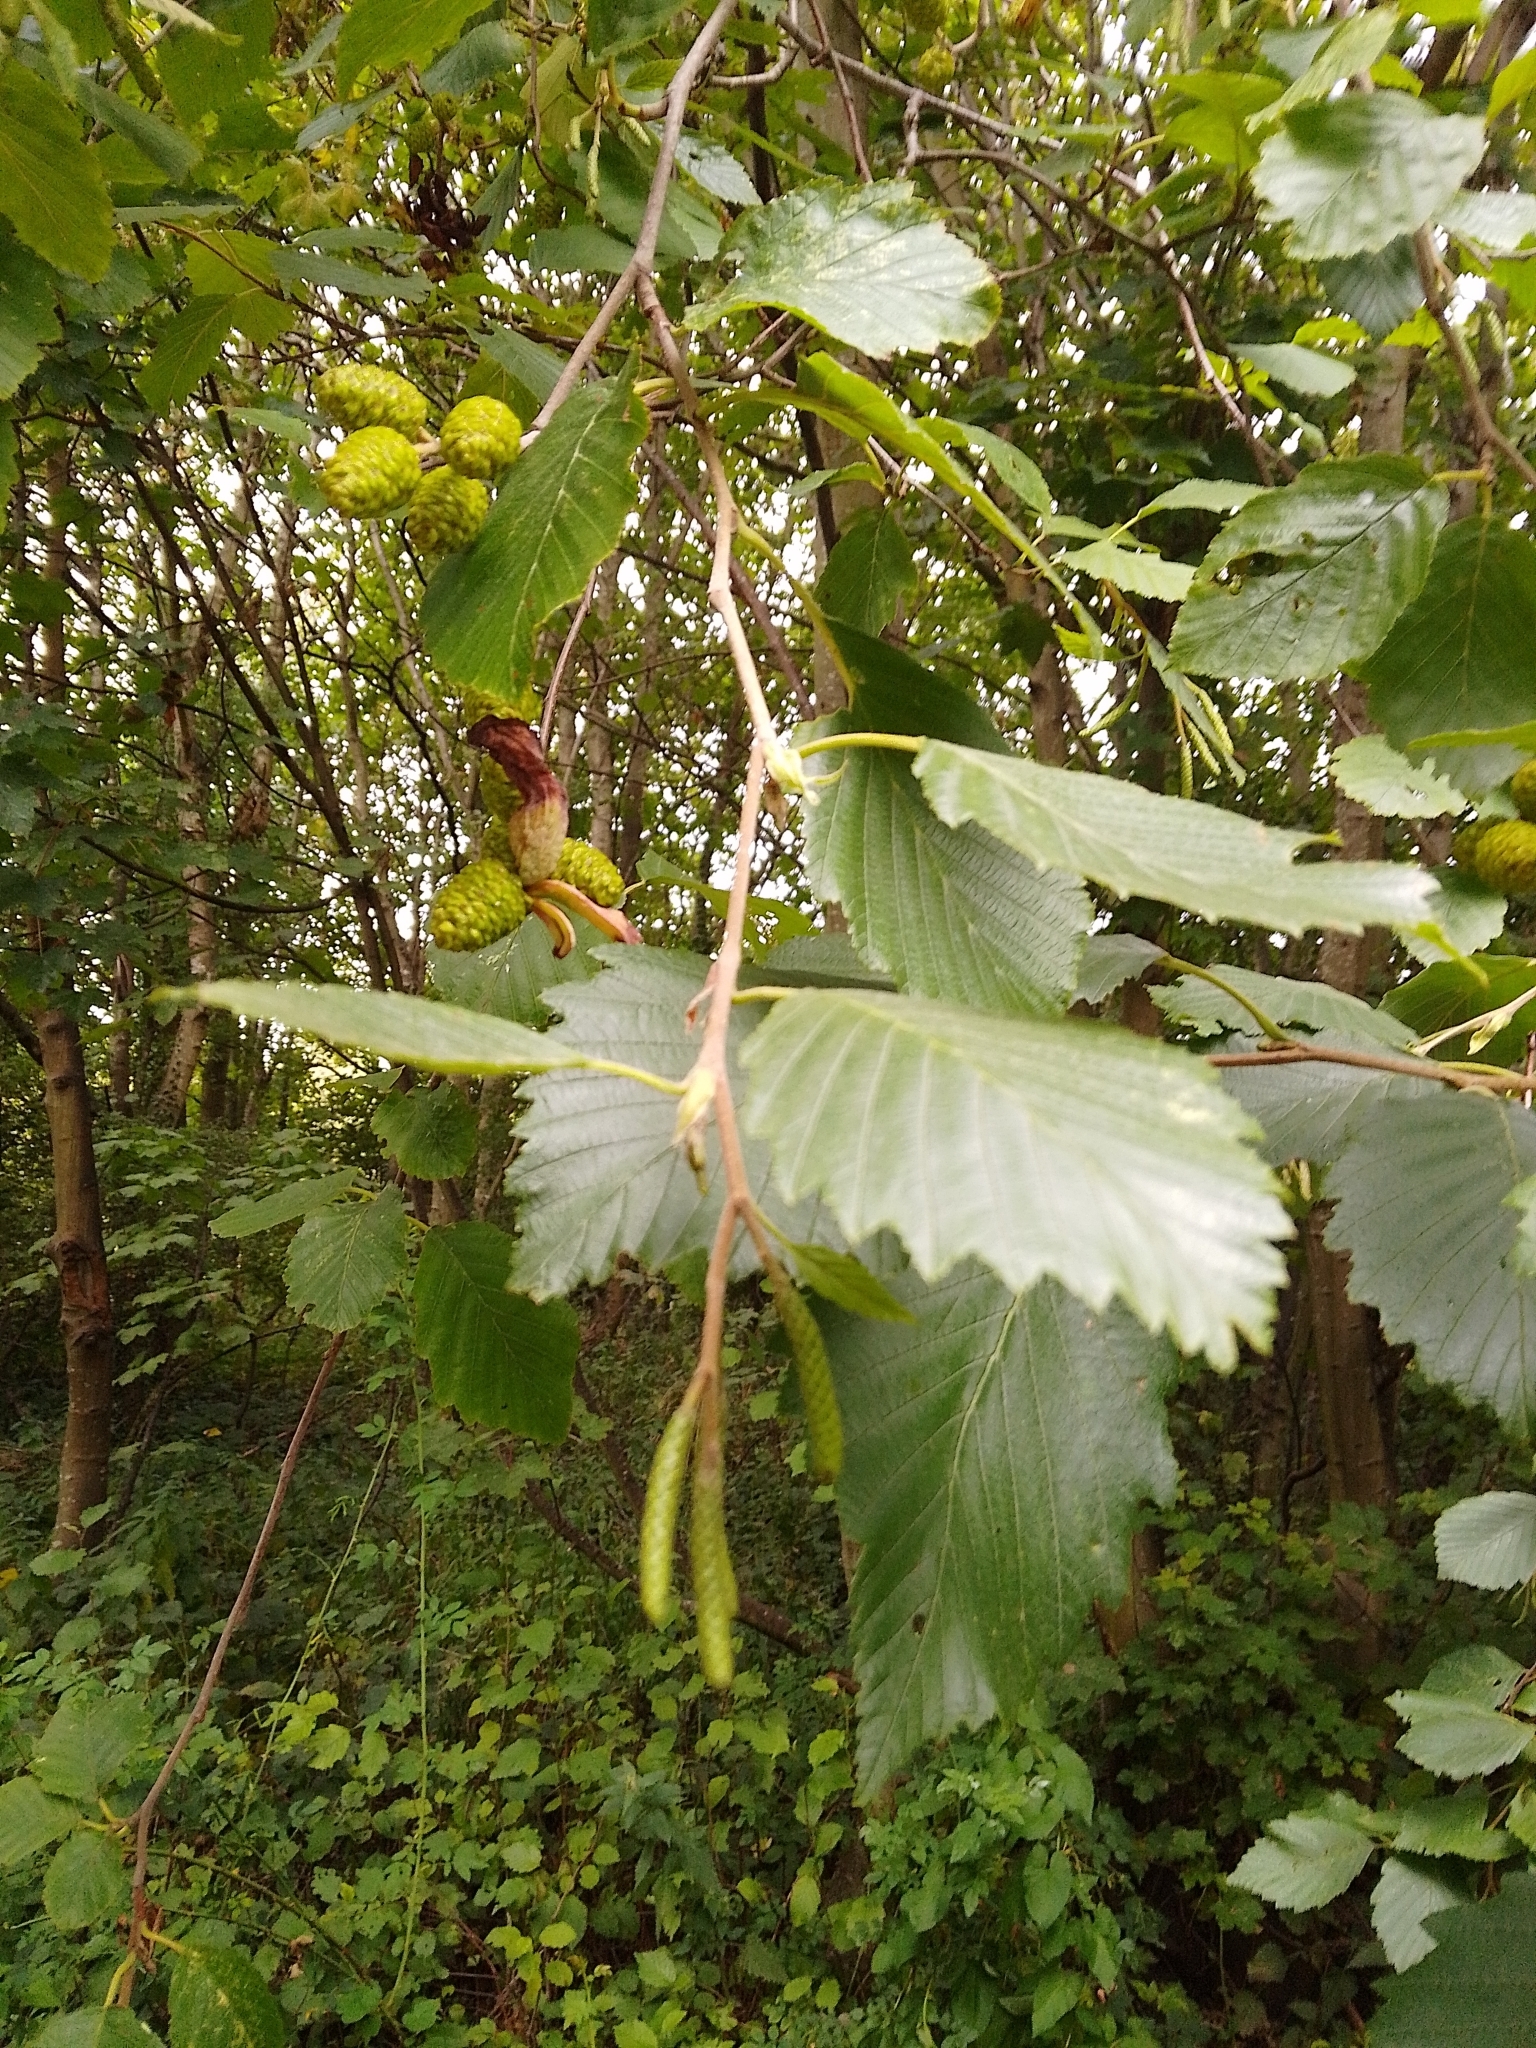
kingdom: Plantae
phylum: Tracheophyta
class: Magnoliopsida
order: Fagales
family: Betulaceae
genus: Alnus
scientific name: Alnus incana
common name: Grey alder
